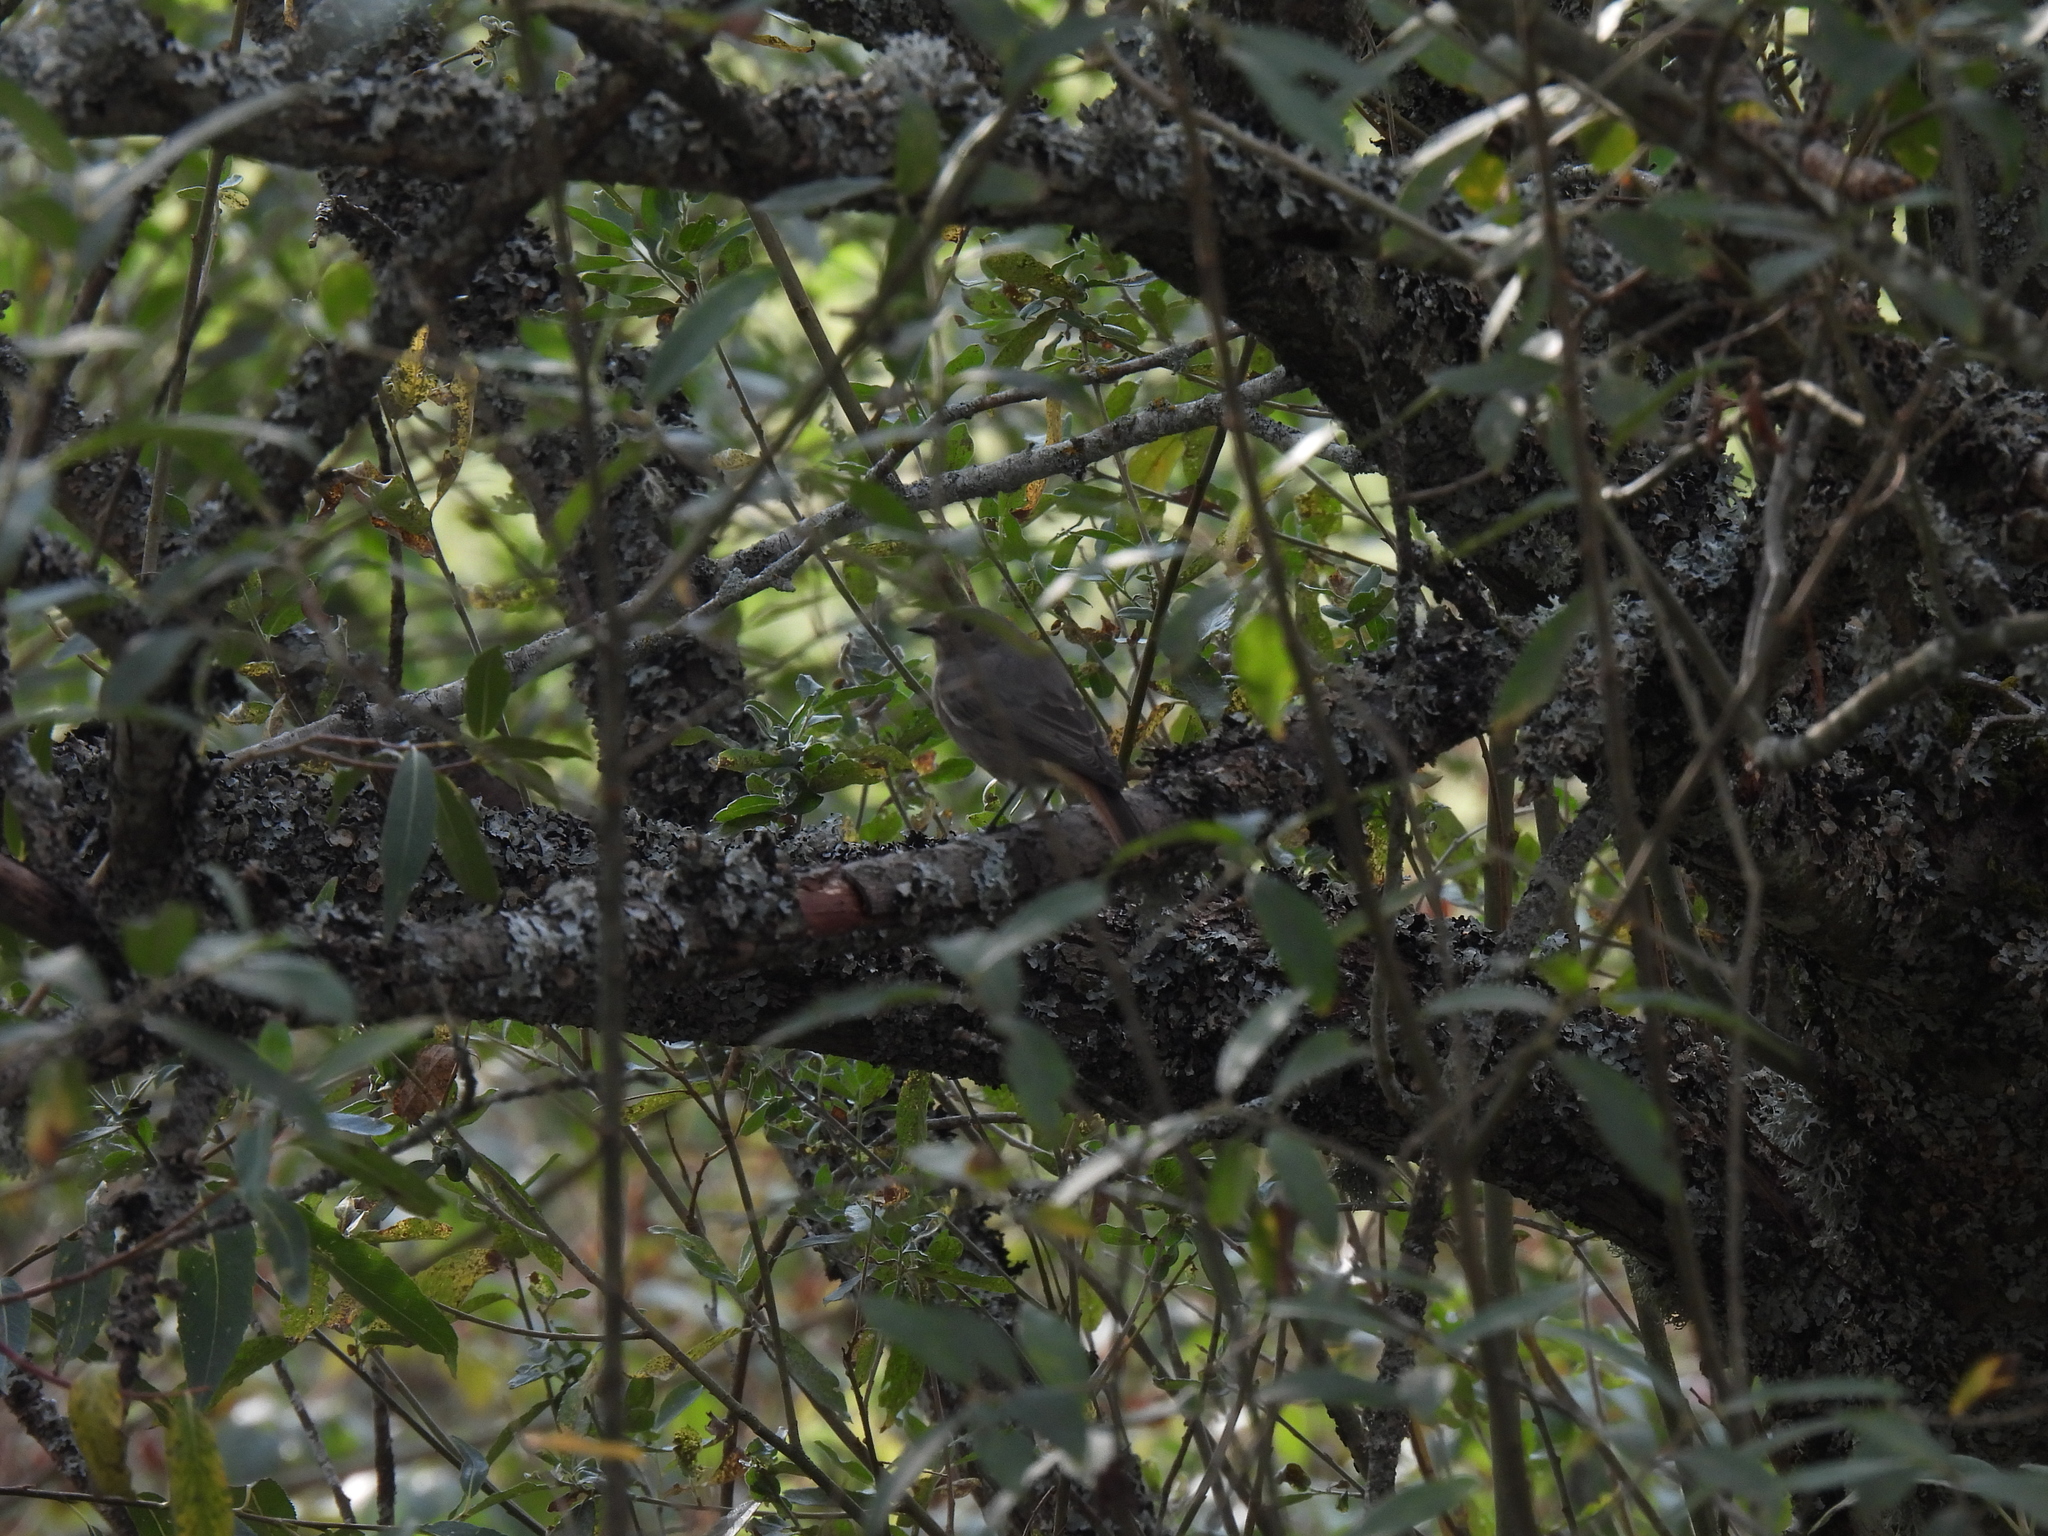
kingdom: Animalia
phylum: Chordata
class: Aves
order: Passeriformes
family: Muscicapidae
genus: Phoenicurus
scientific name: Phoenicurus ochruros
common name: Black redstart
